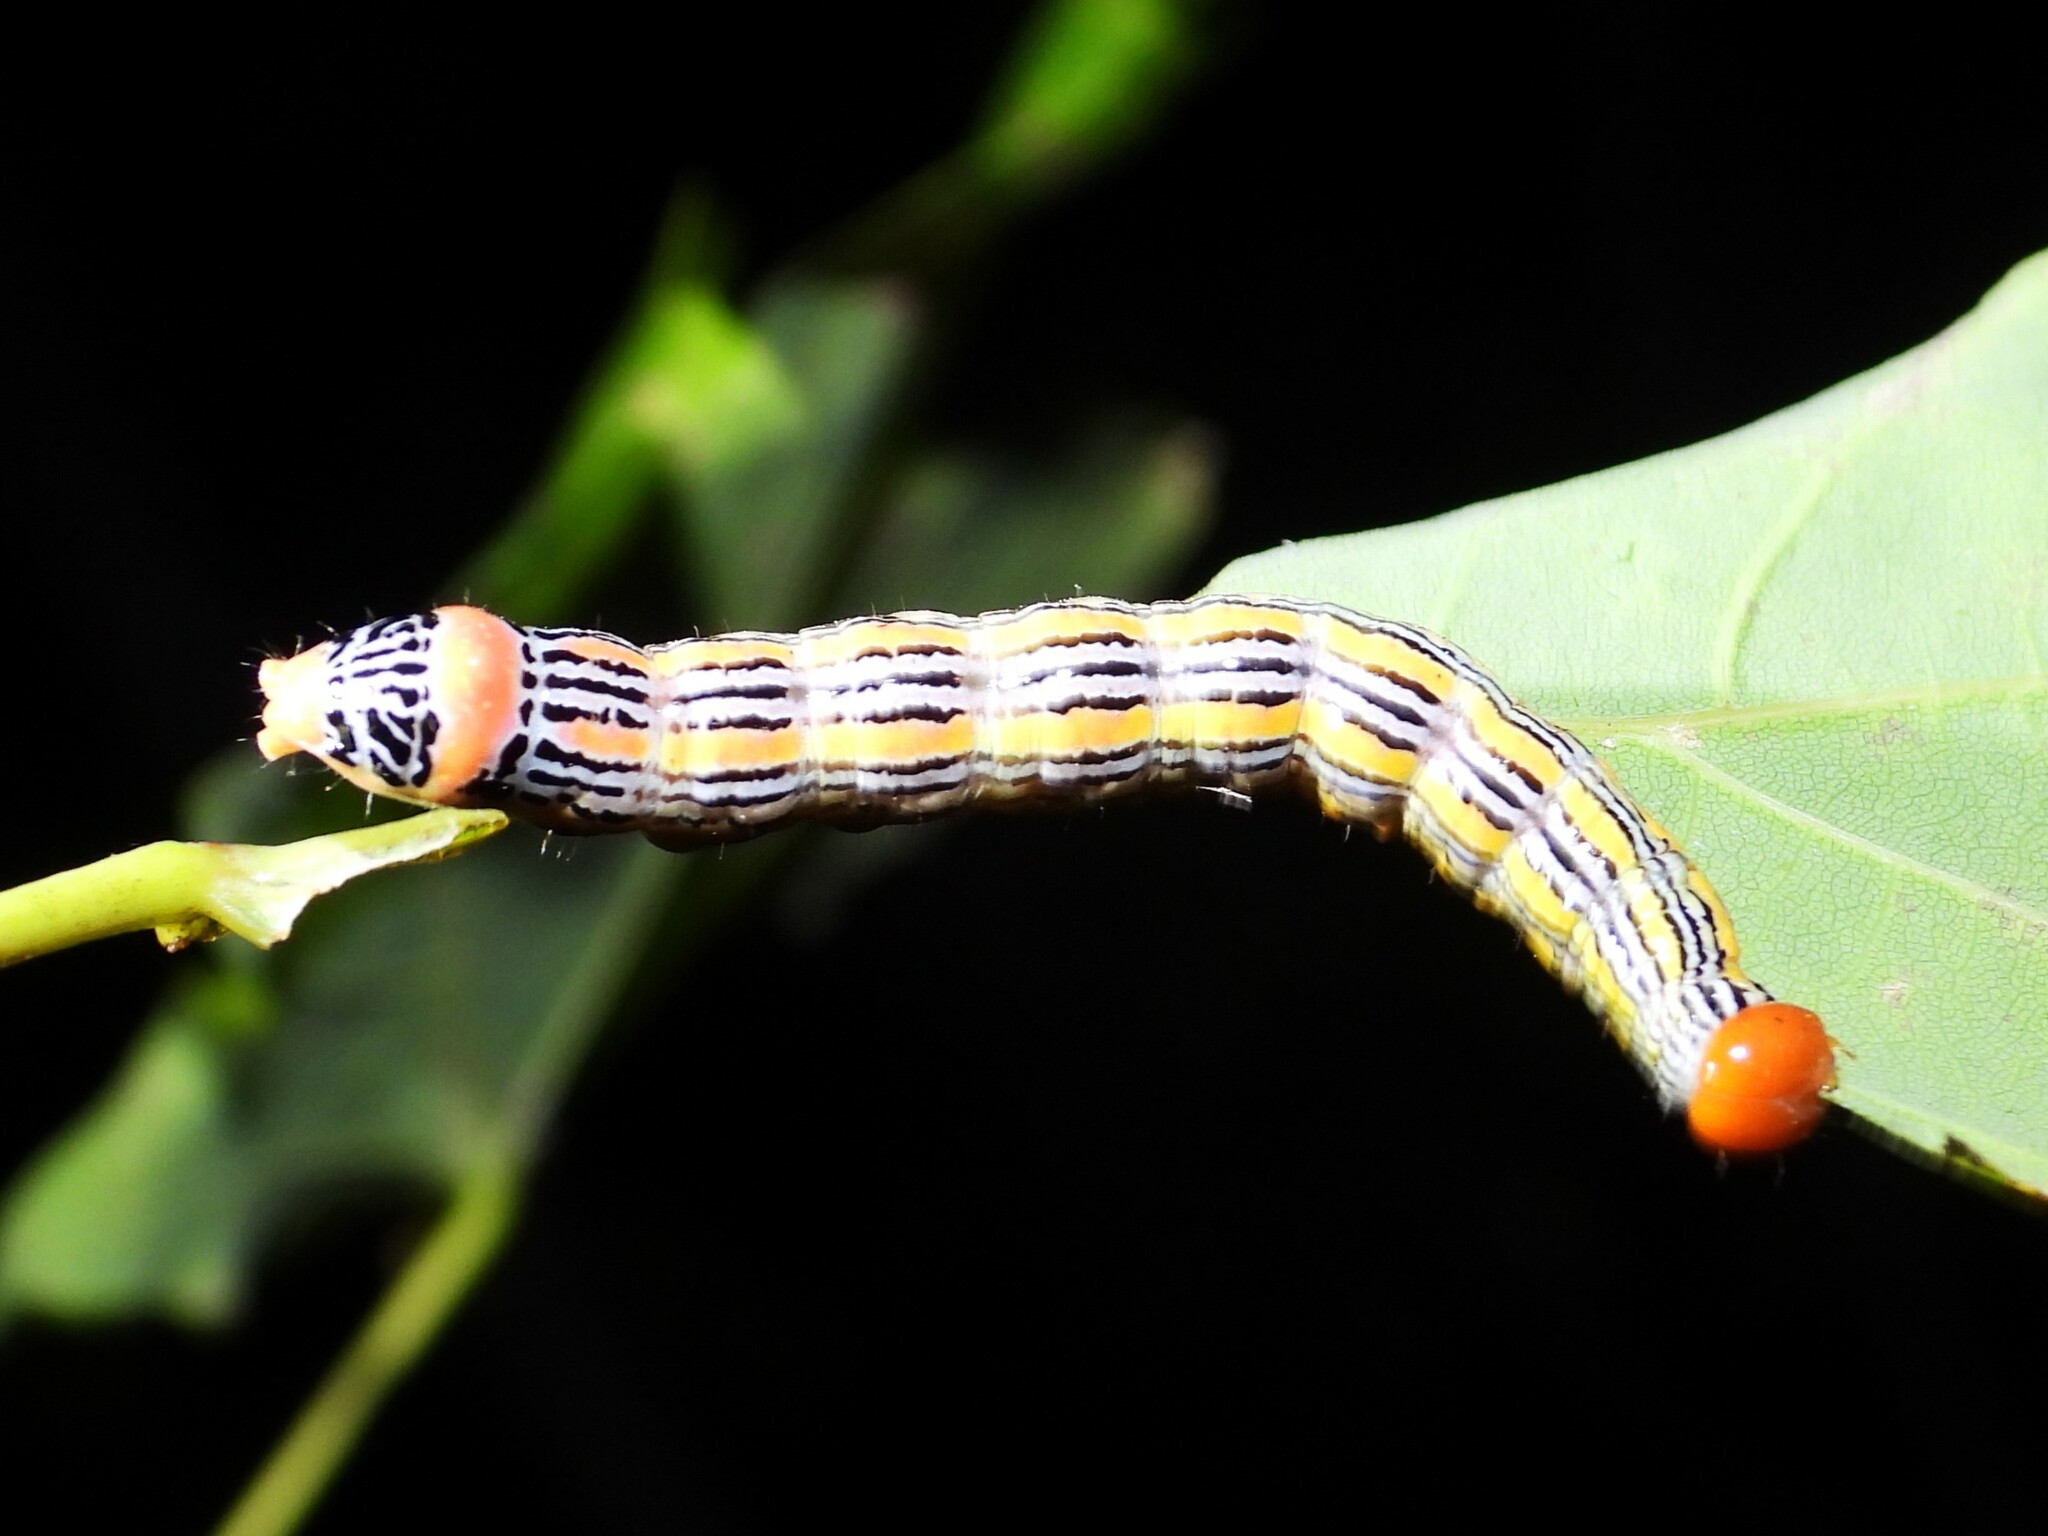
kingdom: Animalia
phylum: Arthropoda
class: Insecta
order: Lepidoptera
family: Notodontidae
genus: Symmerista
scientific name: Symmerista leucitys
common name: Orange-humped mapleworm
